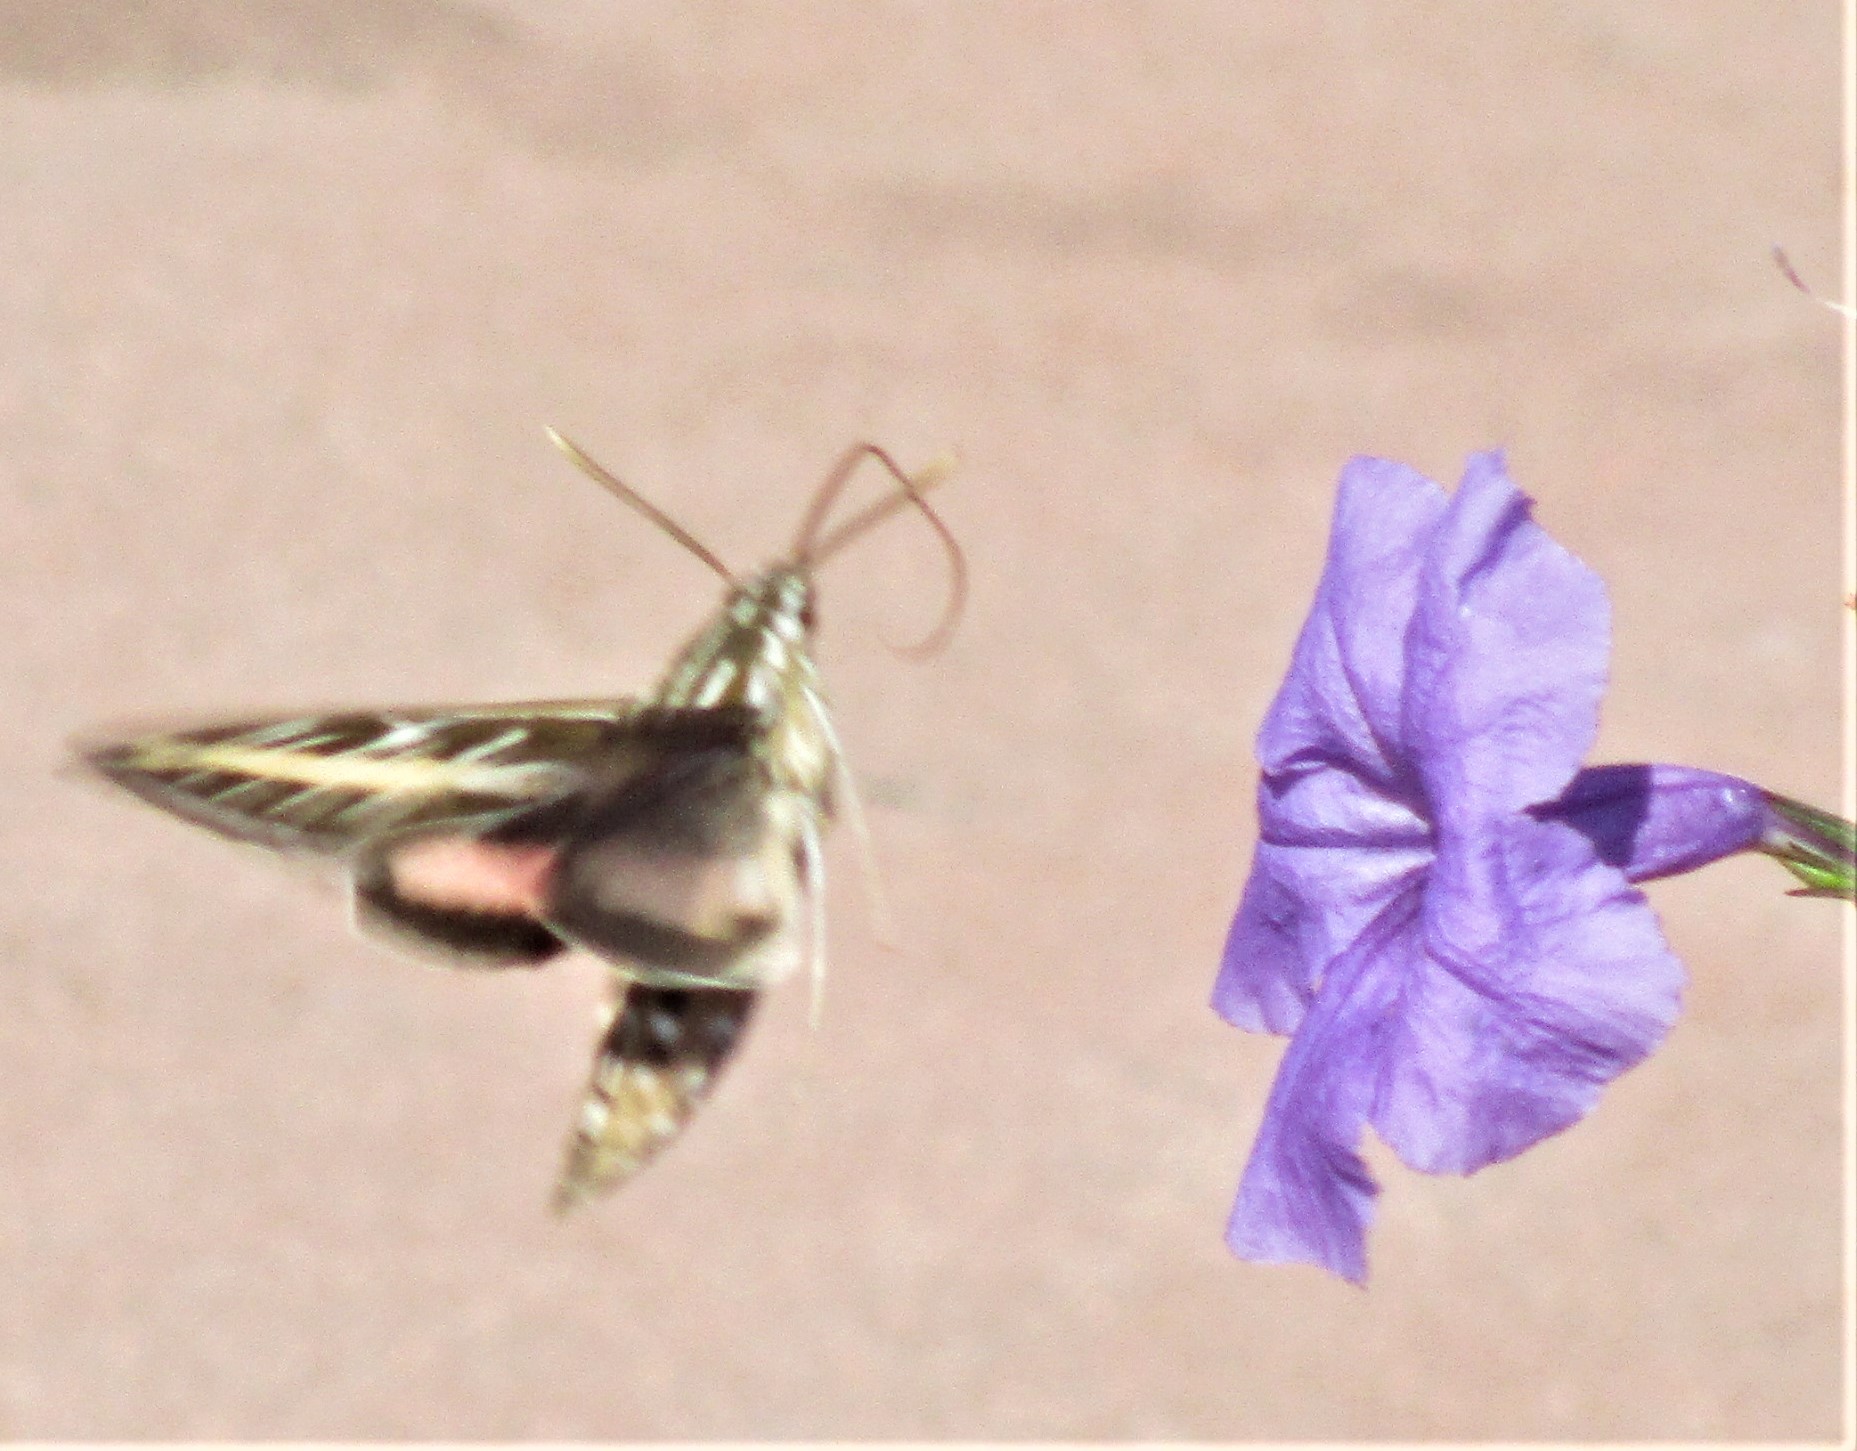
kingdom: Animalia
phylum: Arthropoda
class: Insecta
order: Lepidoptera
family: Sphingidae
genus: Hyles
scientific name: Hyles lineata
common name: White-lined sphinx
